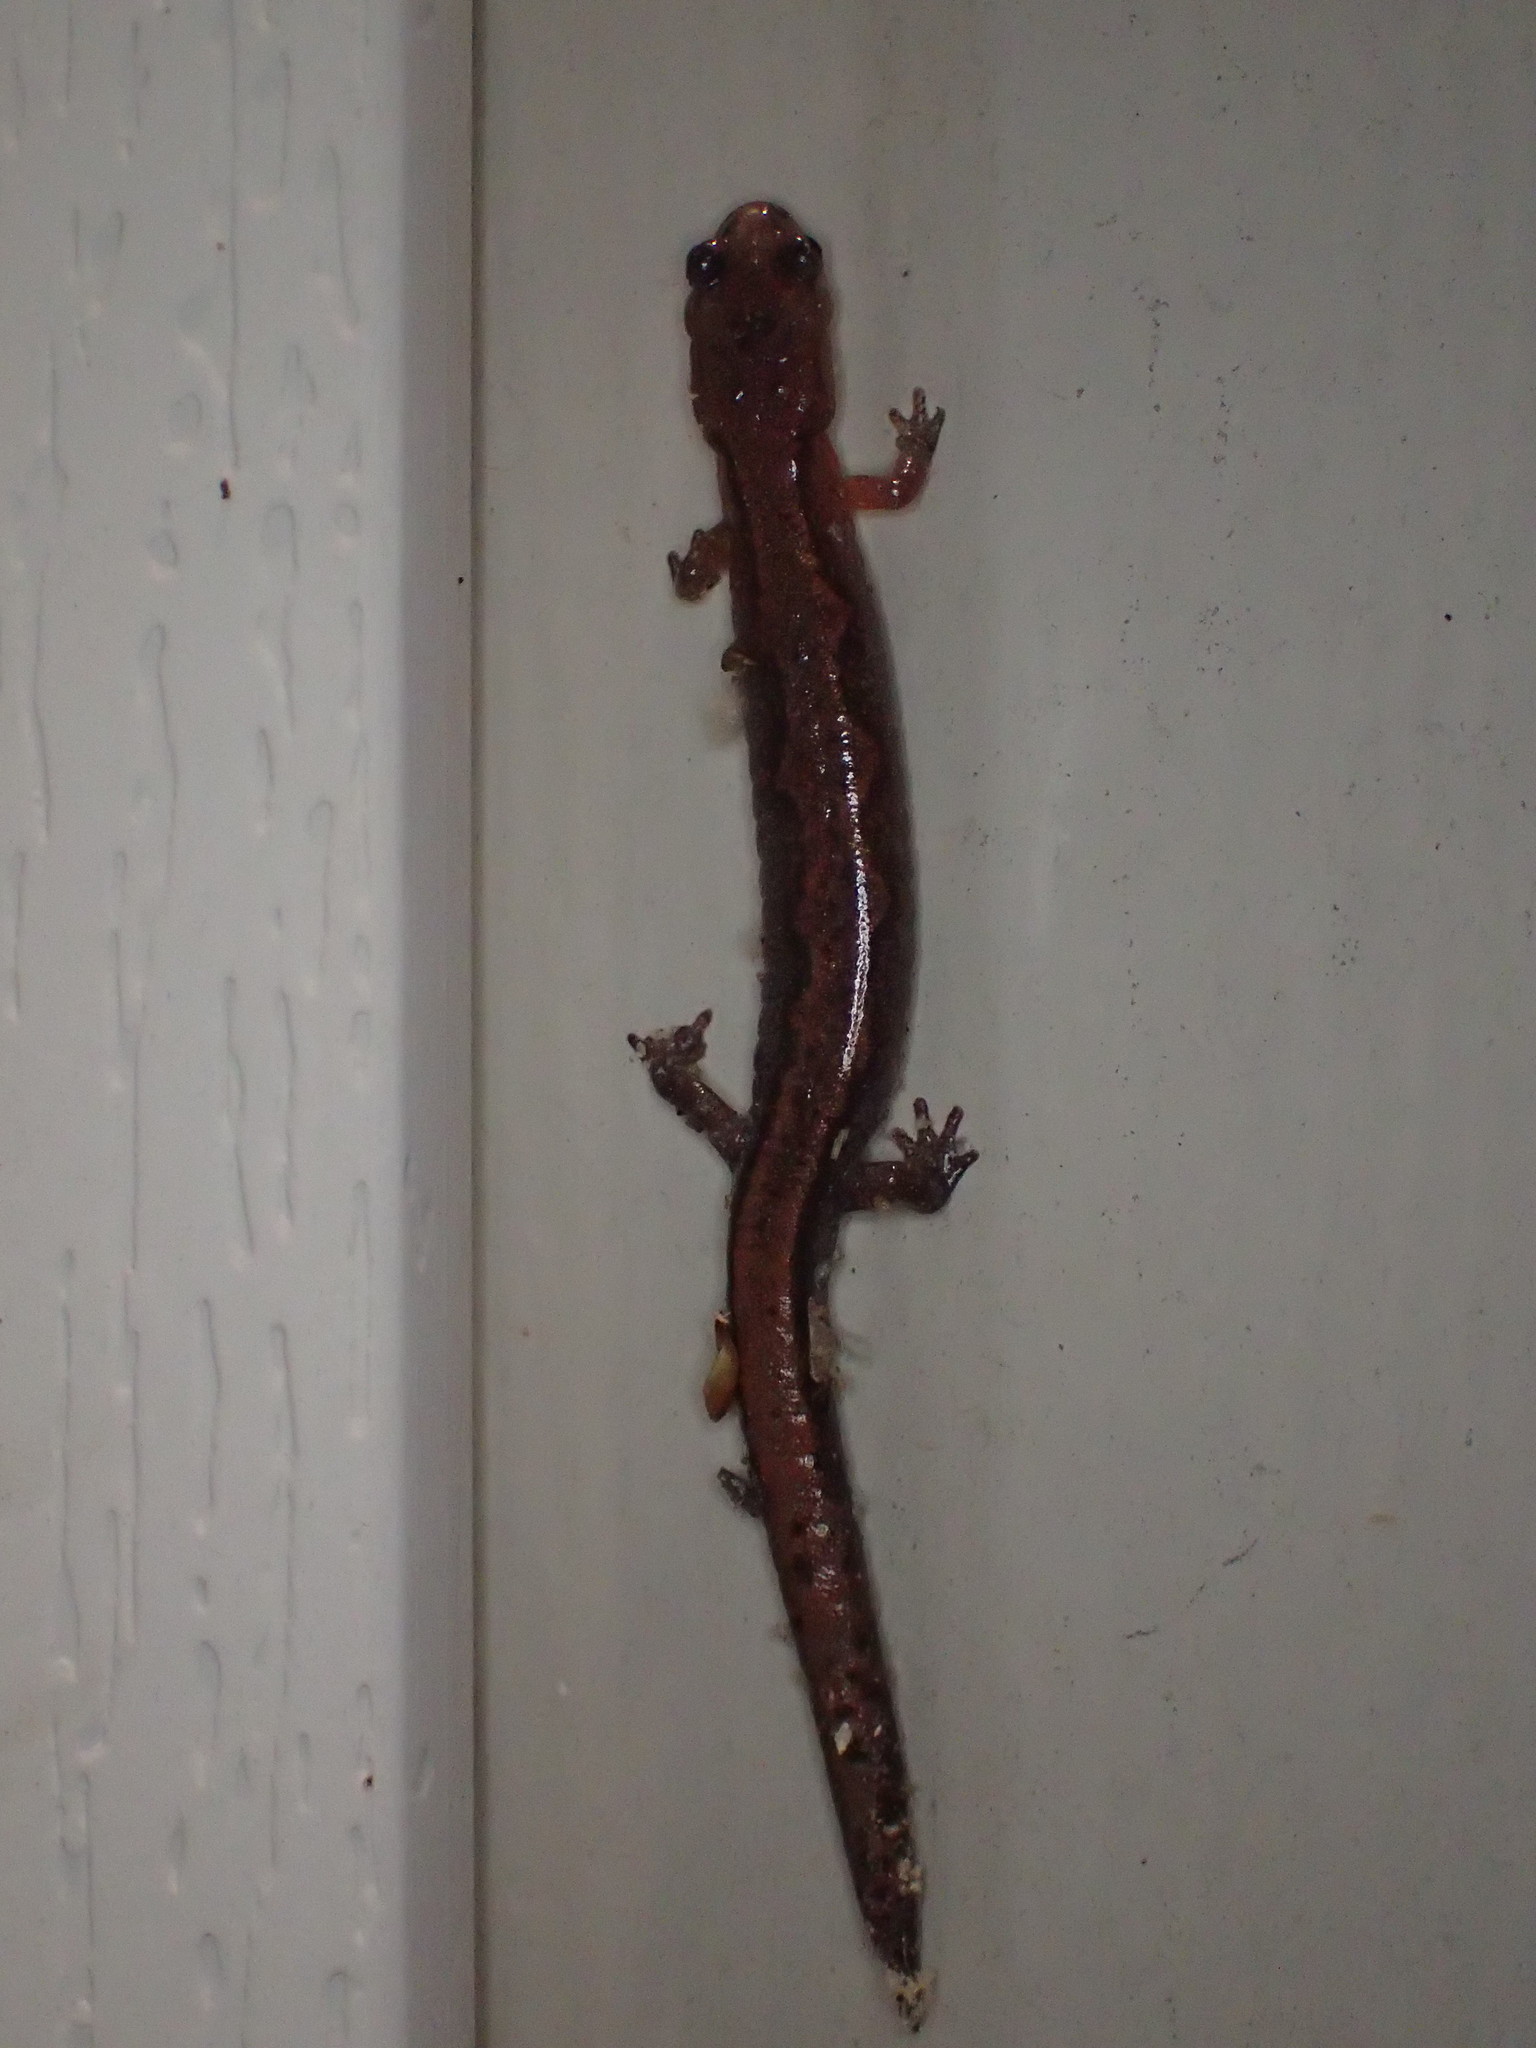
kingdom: Animalia
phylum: Chordata
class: Amphibia
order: Caudata
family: Plethodontidae
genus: Plethodon
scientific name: Plethodon websteri
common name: Webster's salamander
